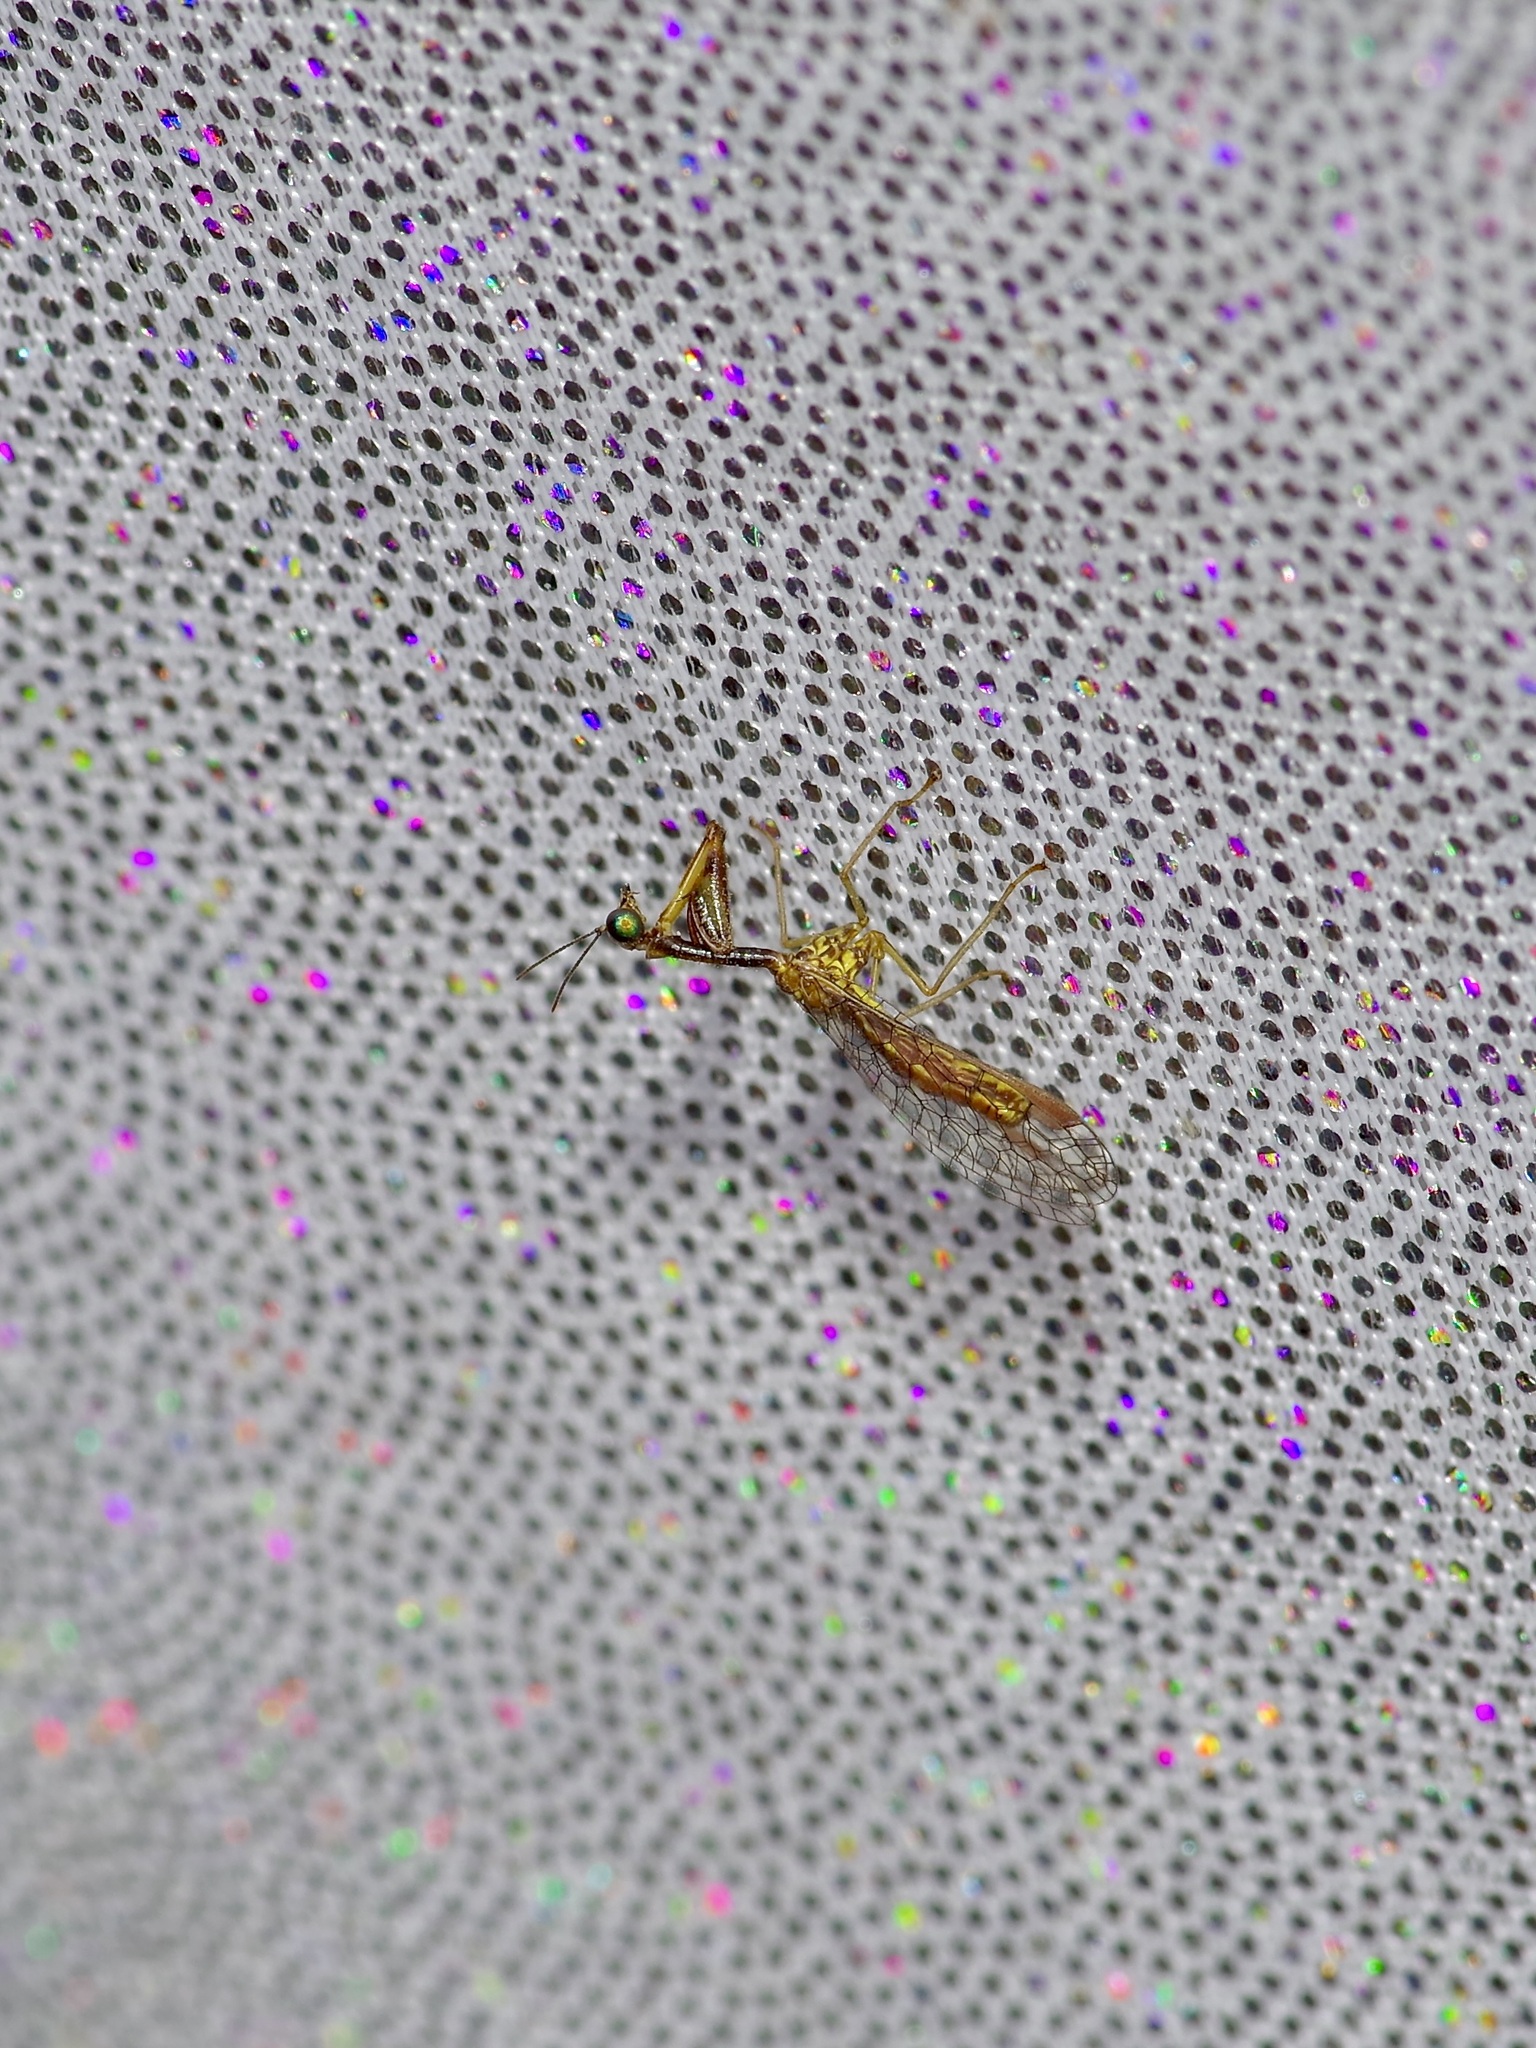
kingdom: Animalia
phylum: Arthropoda
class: Insecta
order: Neuroptera
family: Mantispidae
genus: Leptomantispa
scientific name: Leptomantispa pulchella
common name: Stevens's mantidfly
